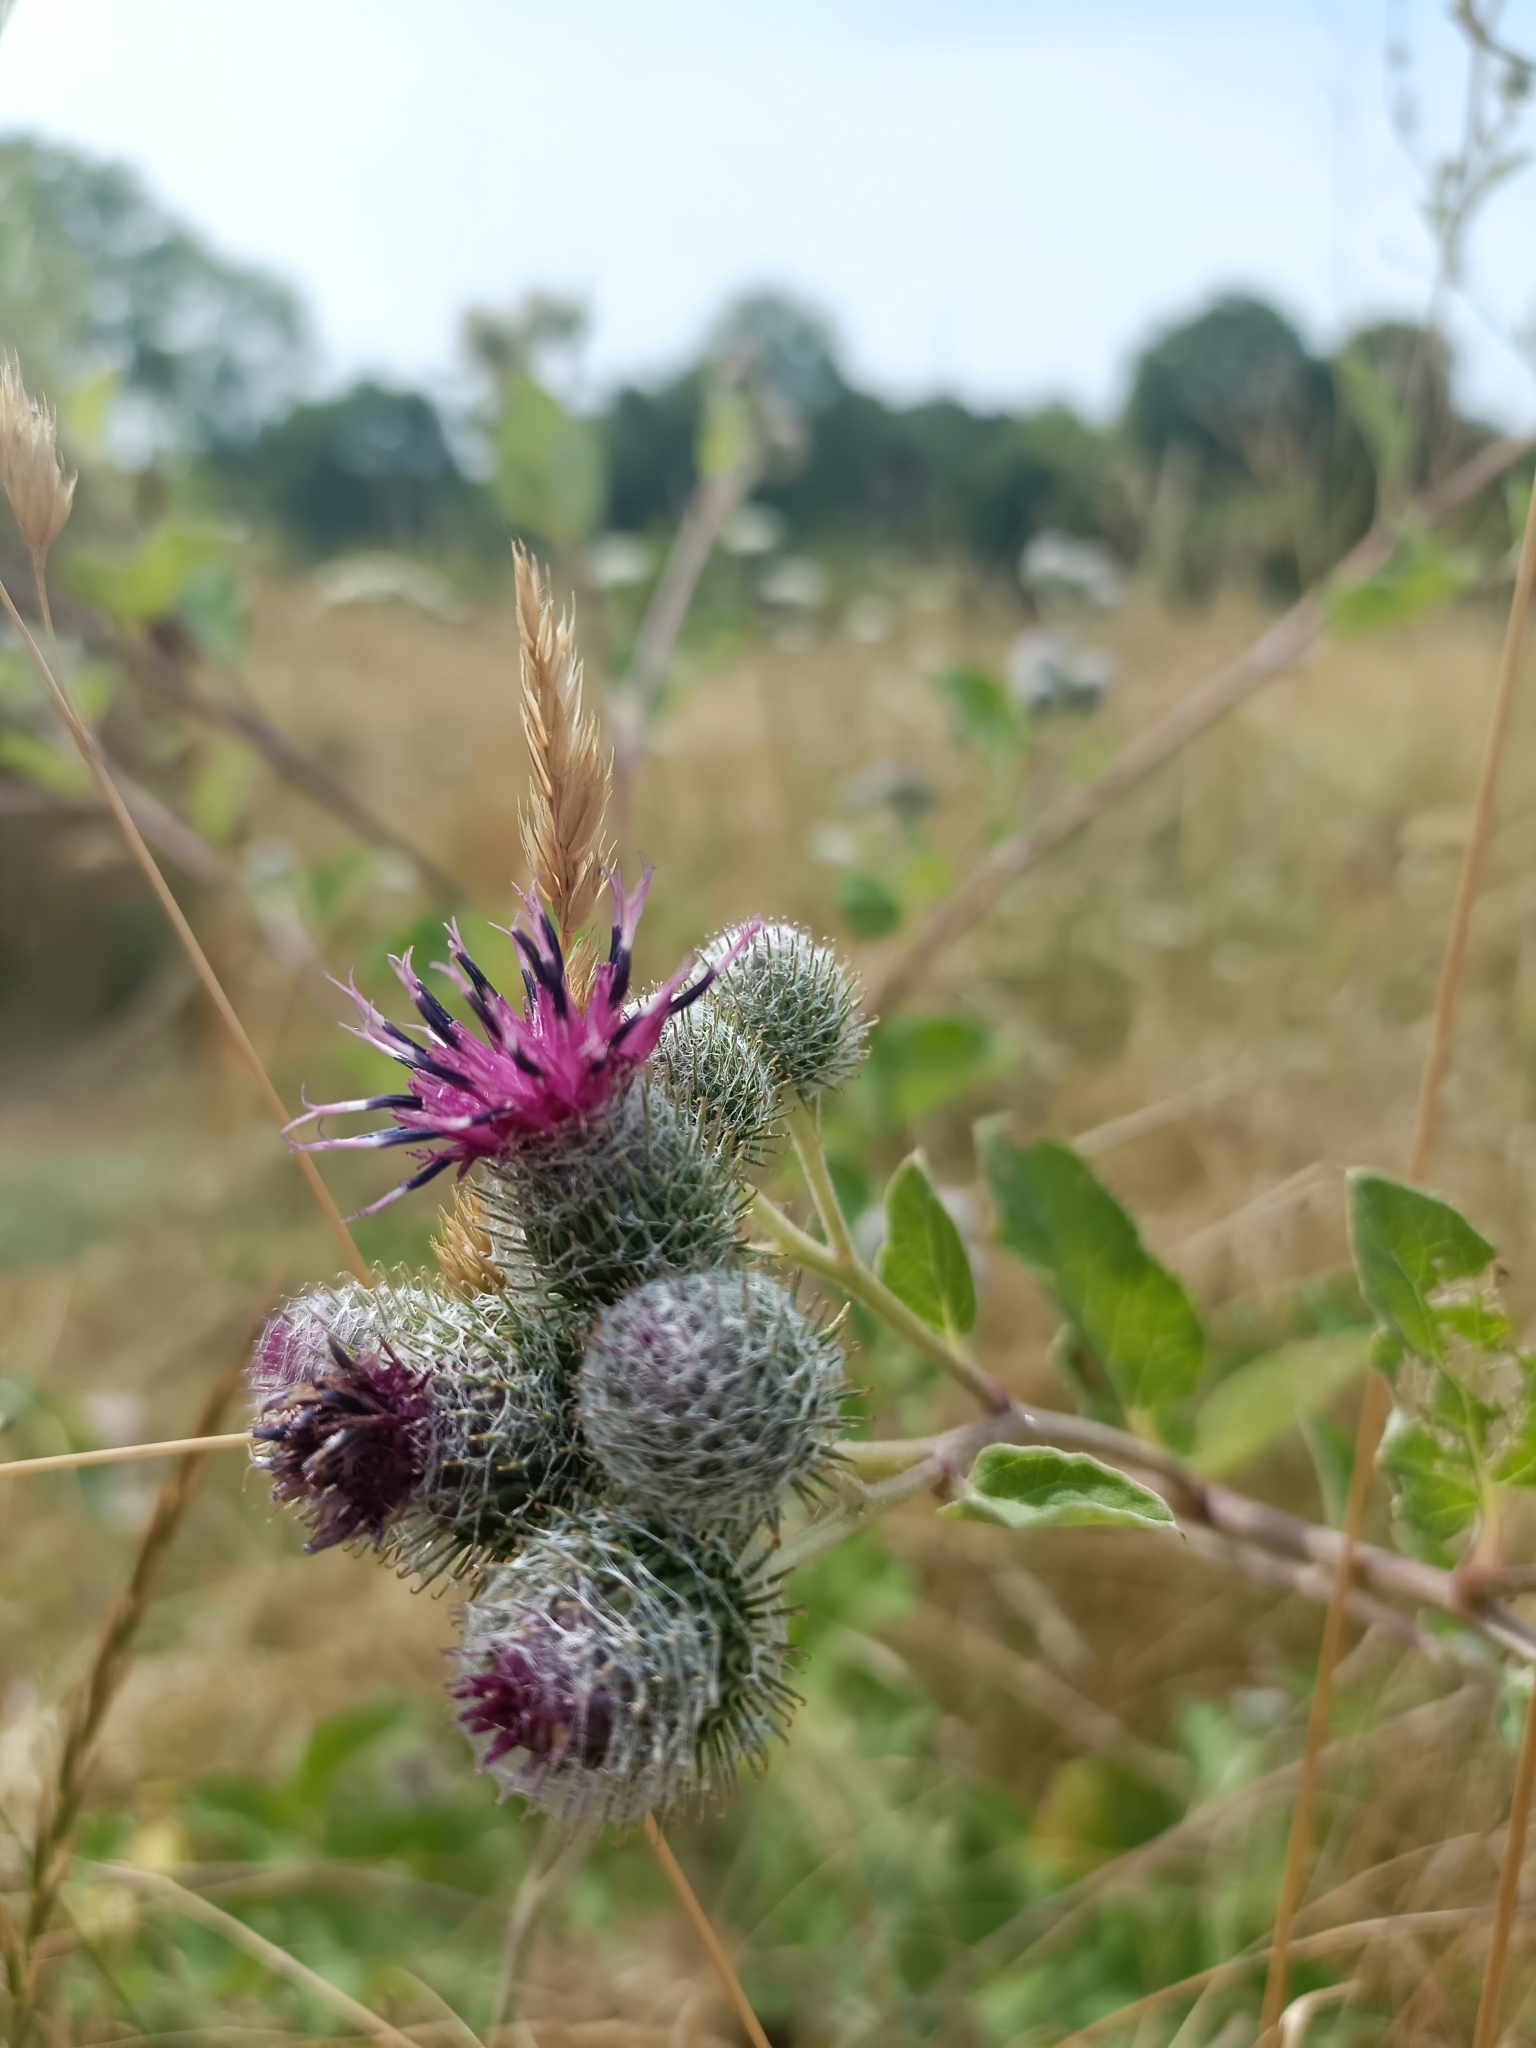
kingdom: Plantae
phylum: Tracheophyta
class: Magnoliopsida
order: Asterales
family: Asteraceae
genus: Arctium
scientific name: Arctium tomentosum
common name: Woolly burdock
